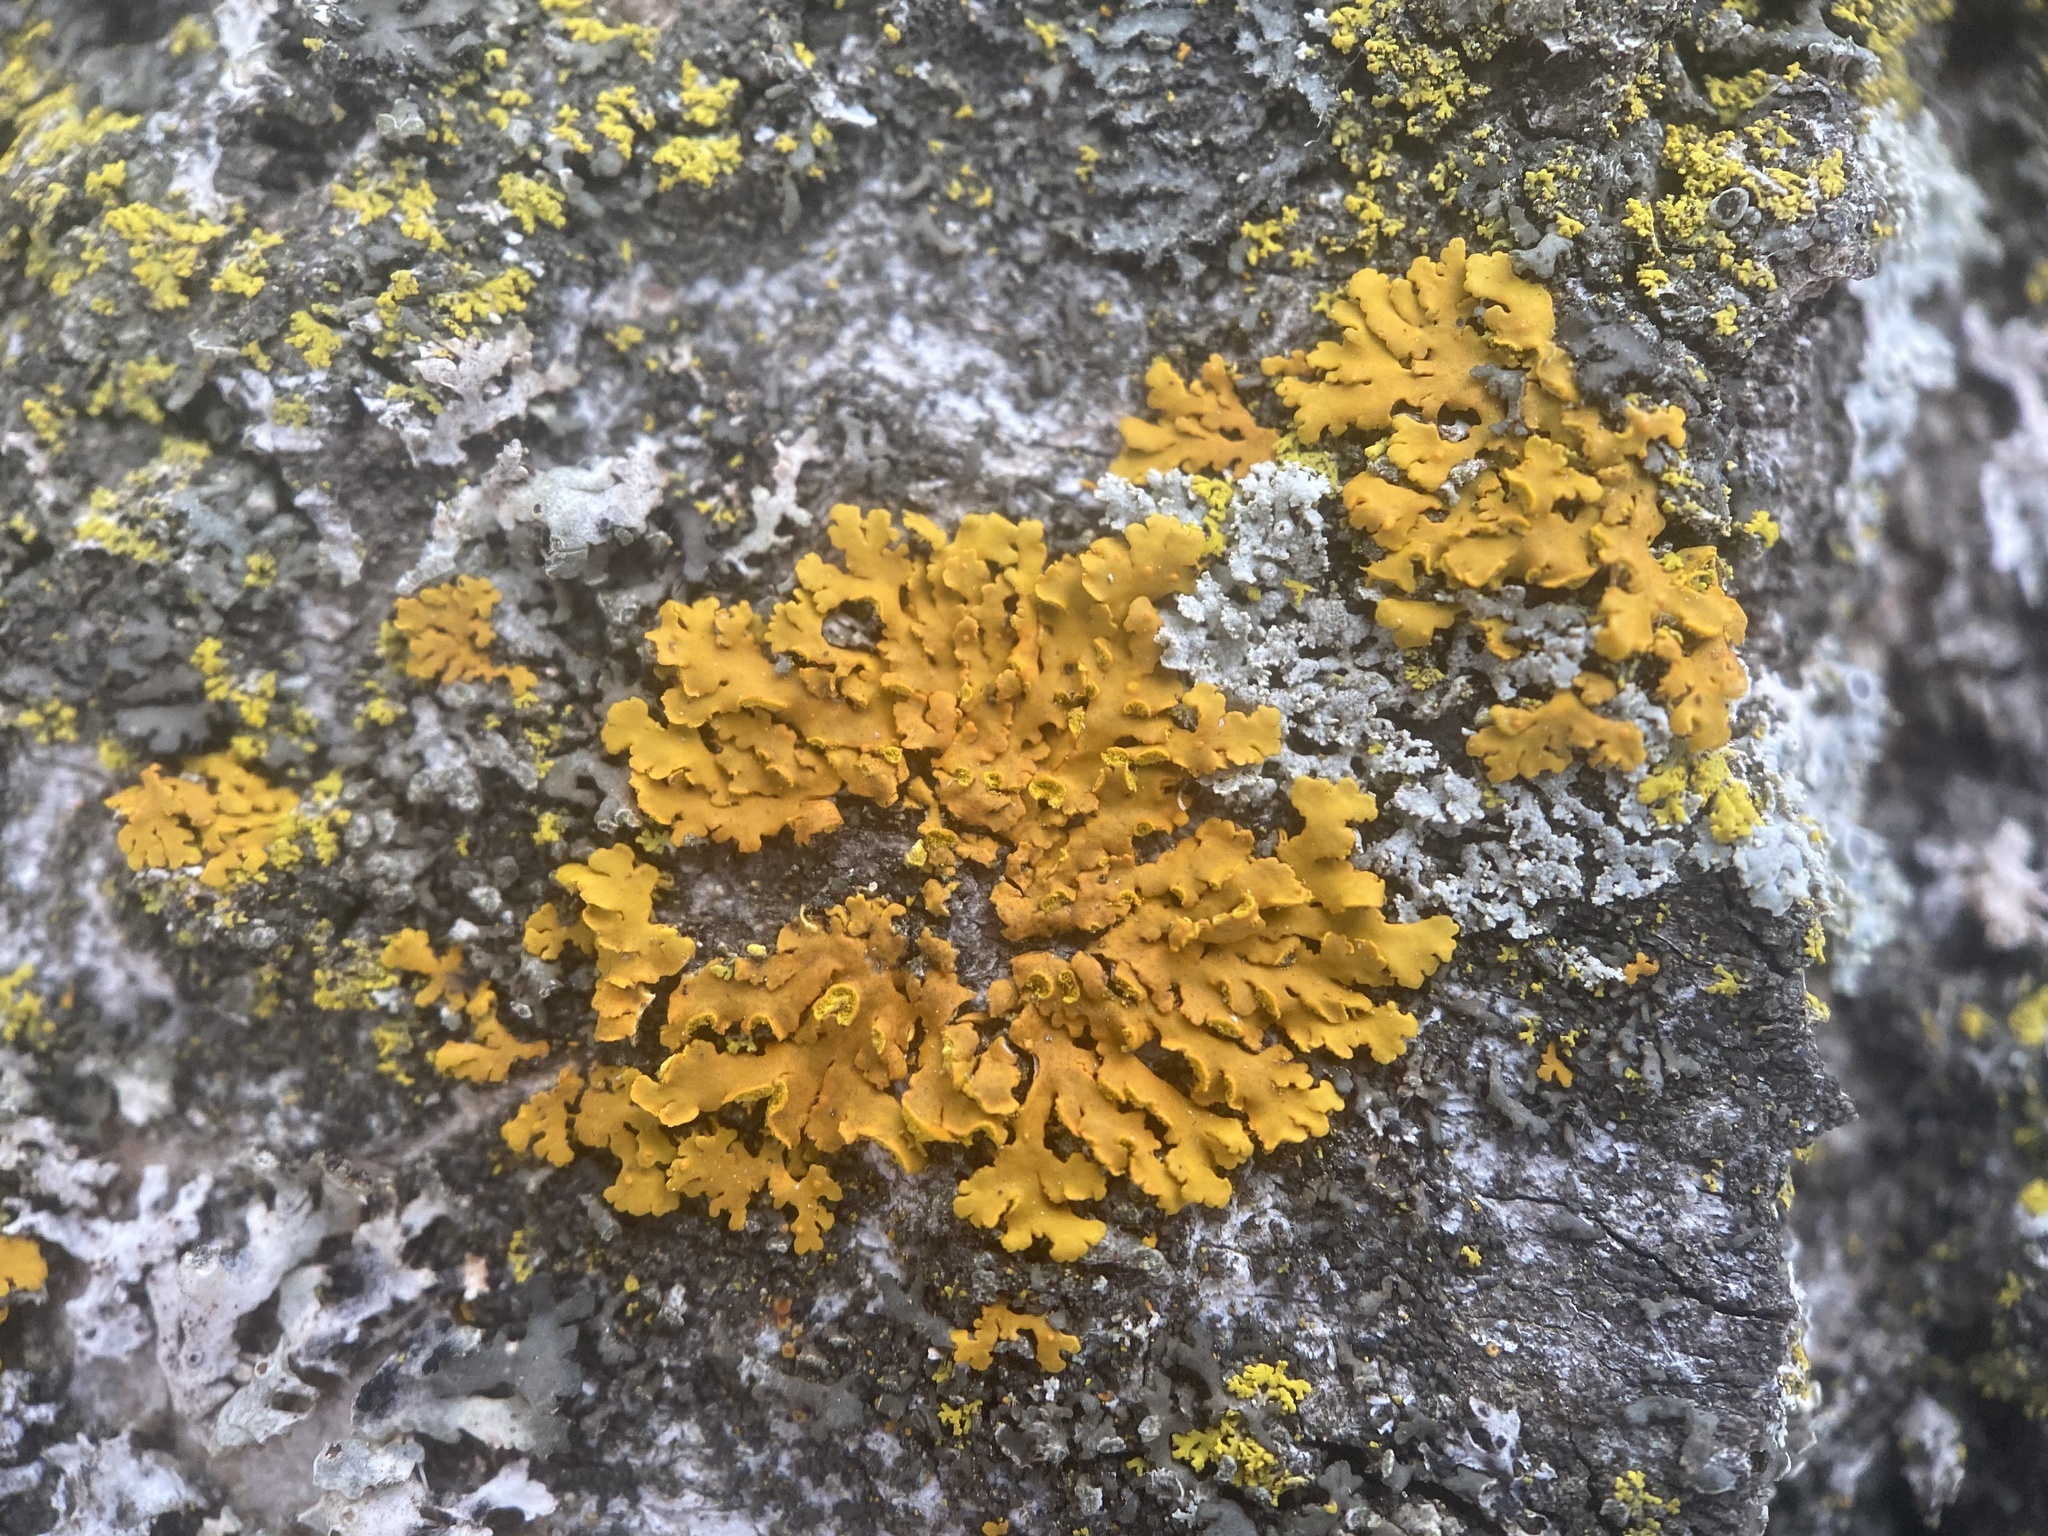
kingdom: Fungi
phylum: Ascomycota
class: Lecanoromycetes
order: Teloschistales
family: Teloschistaceae
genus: Oxneria
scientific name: Oxneria fallax
